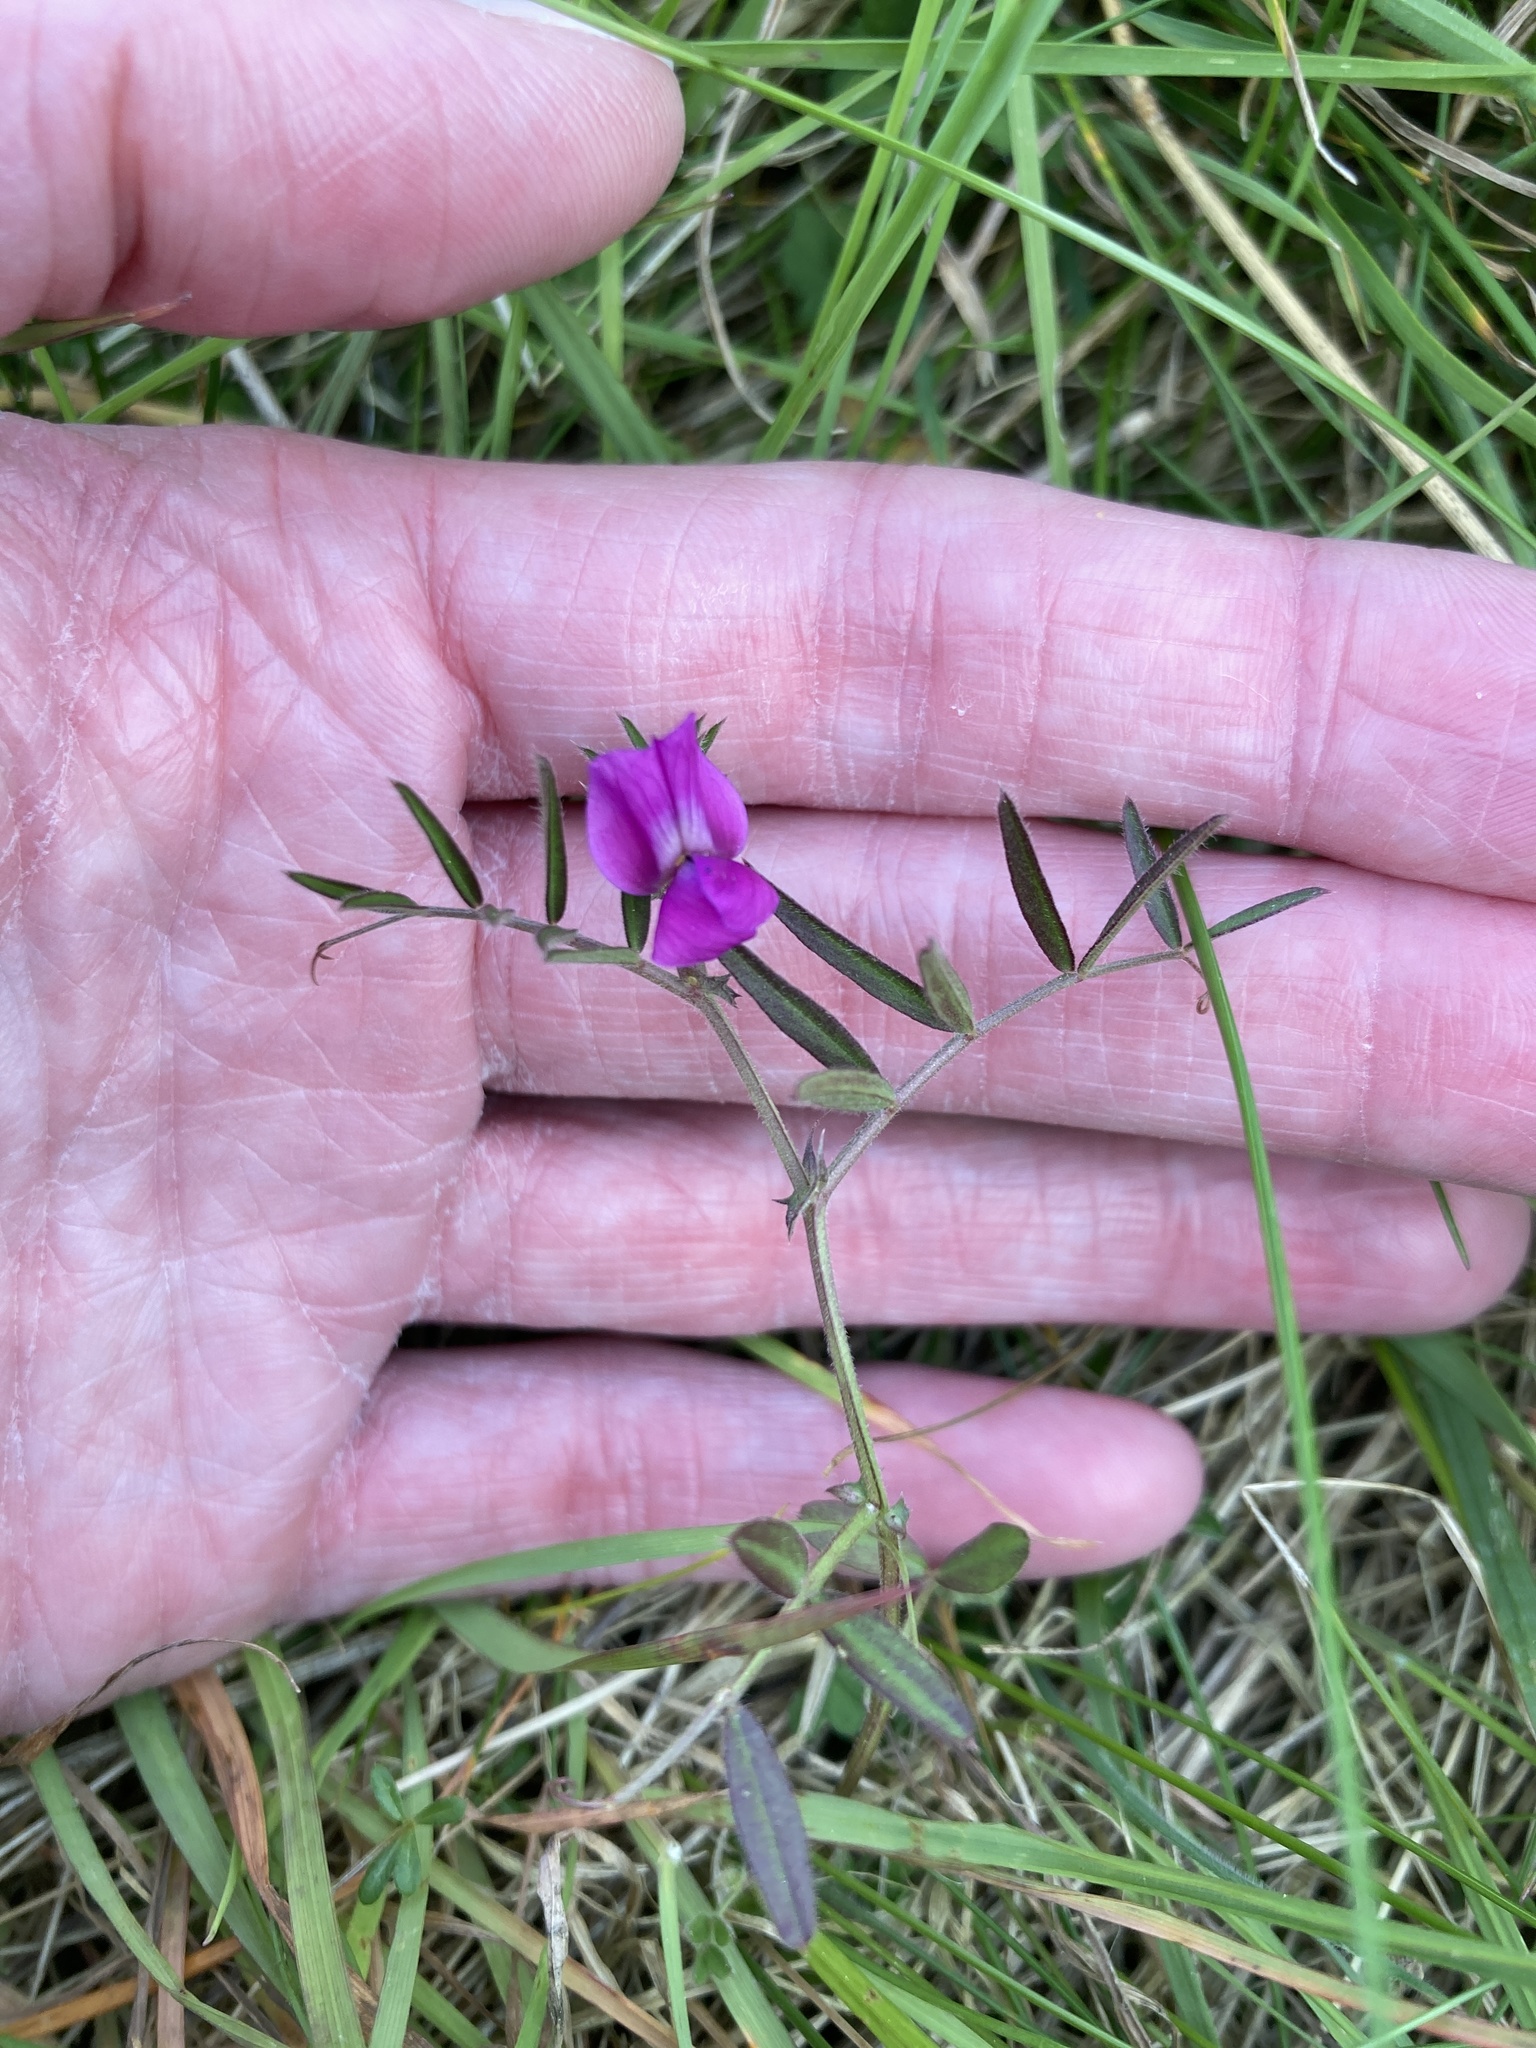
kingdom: Plantae
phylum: Tracheophyta
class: Magnoliopsida
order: Fabales
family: Fabaceae
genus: Vicia
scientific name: Vicia sativa
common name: Garden vetch
